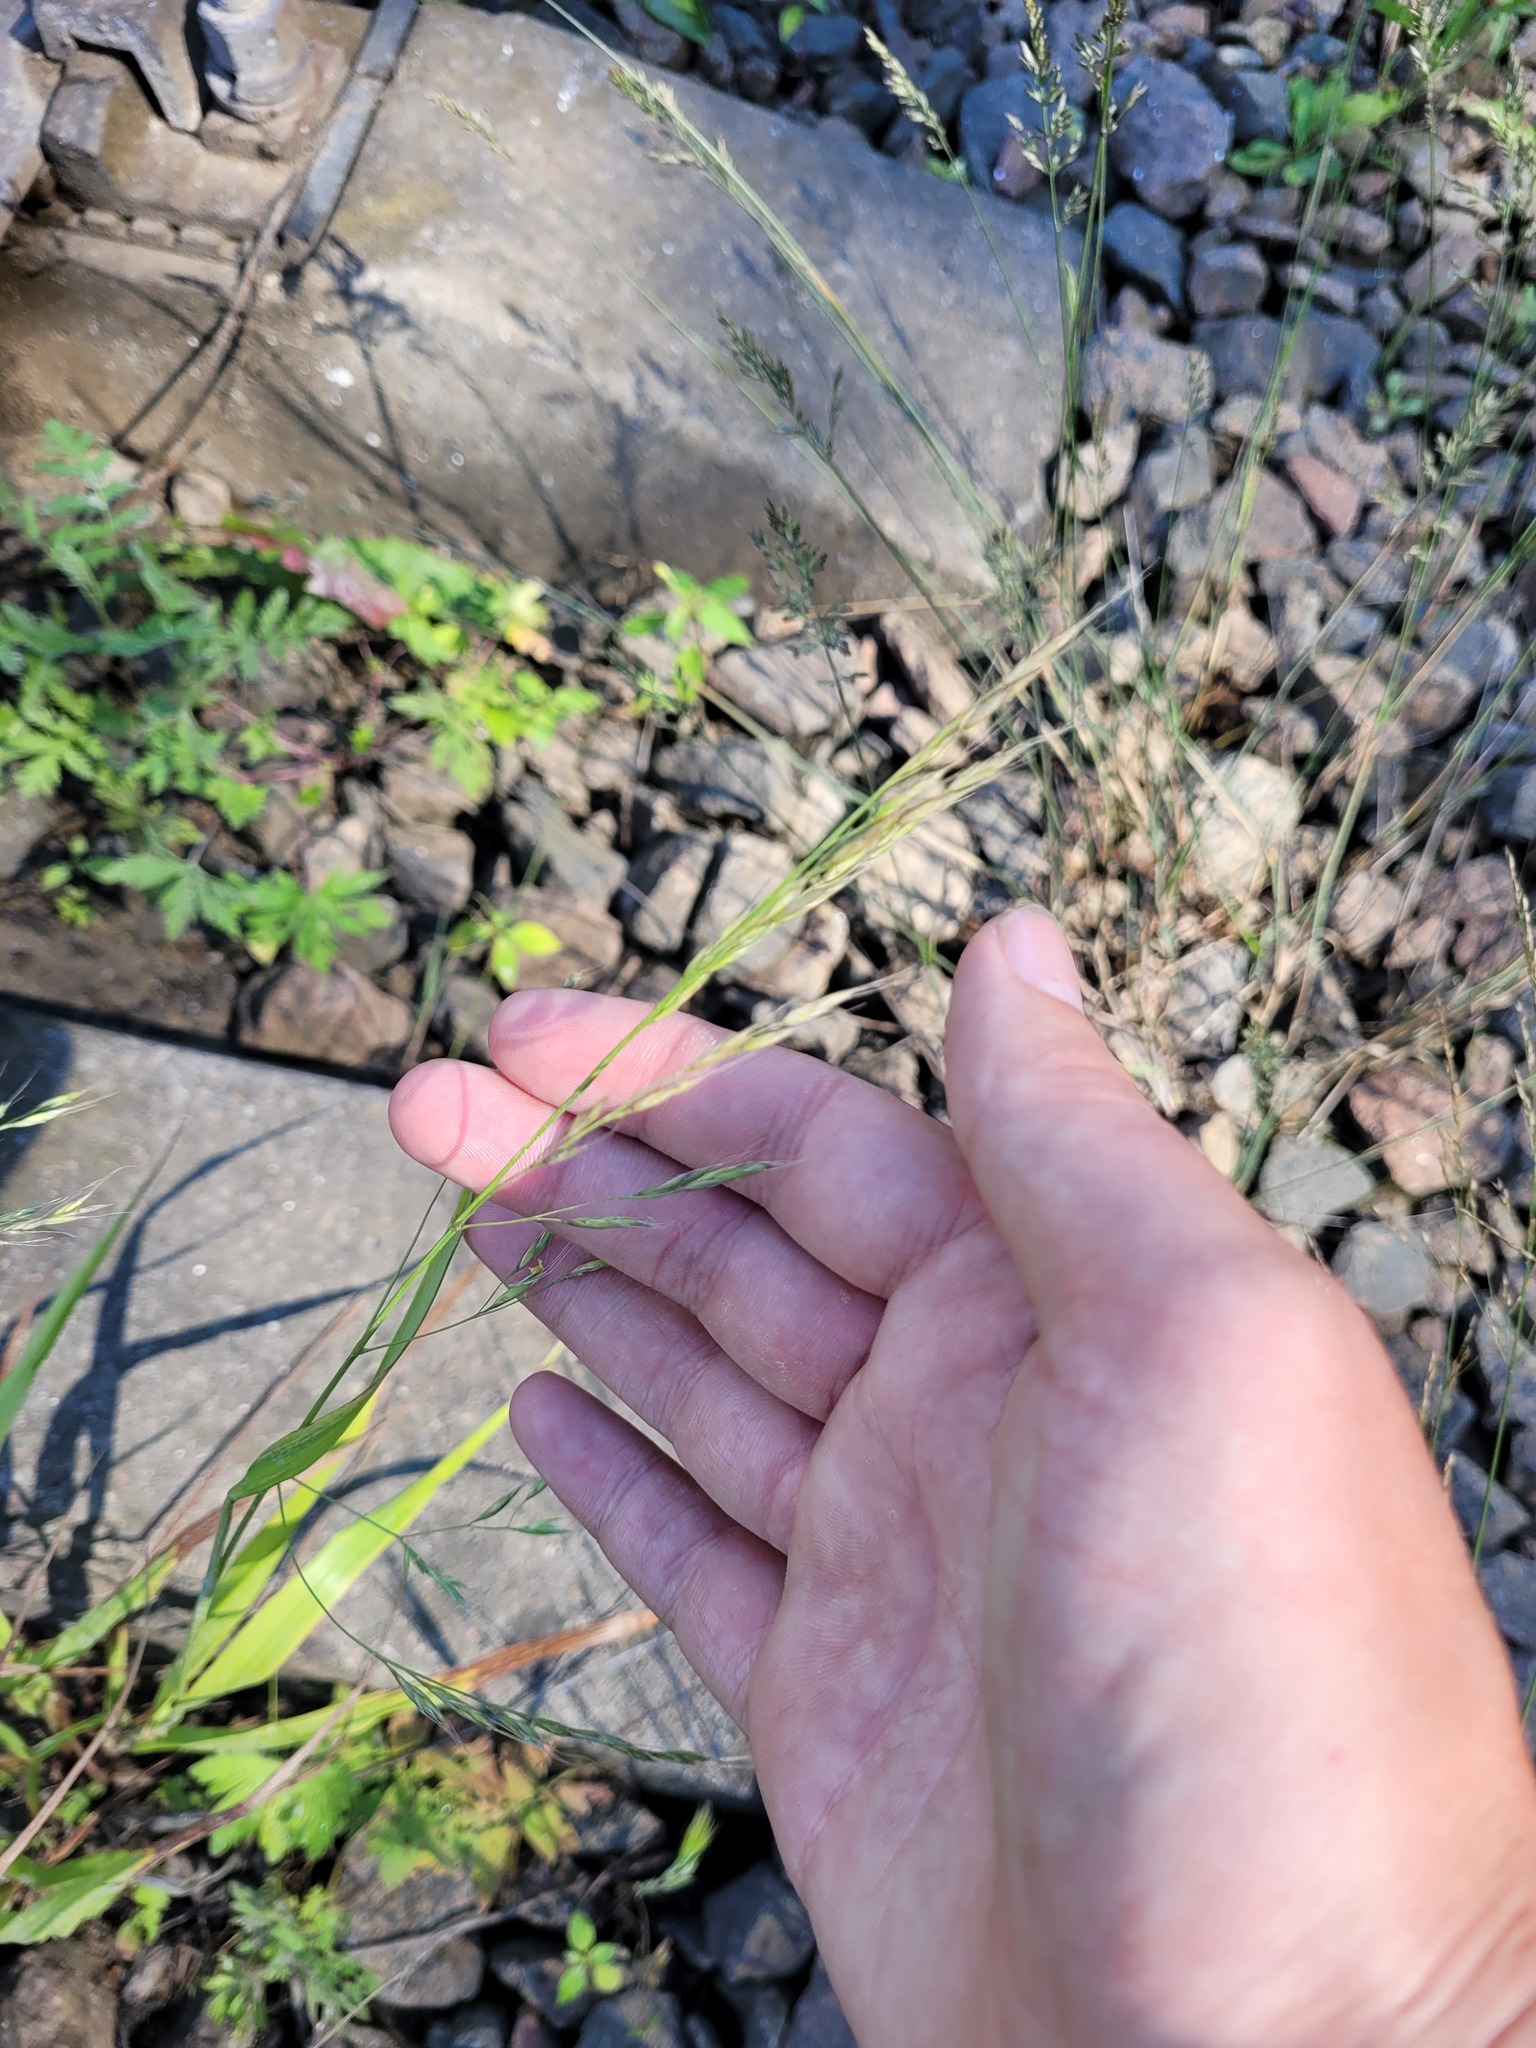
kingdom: Plantae
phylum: Tracheophyta
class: Liliopsida
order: Poales
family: Poaceae
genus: Lolium
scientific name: Lolium giganteum
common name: Giant fescue
